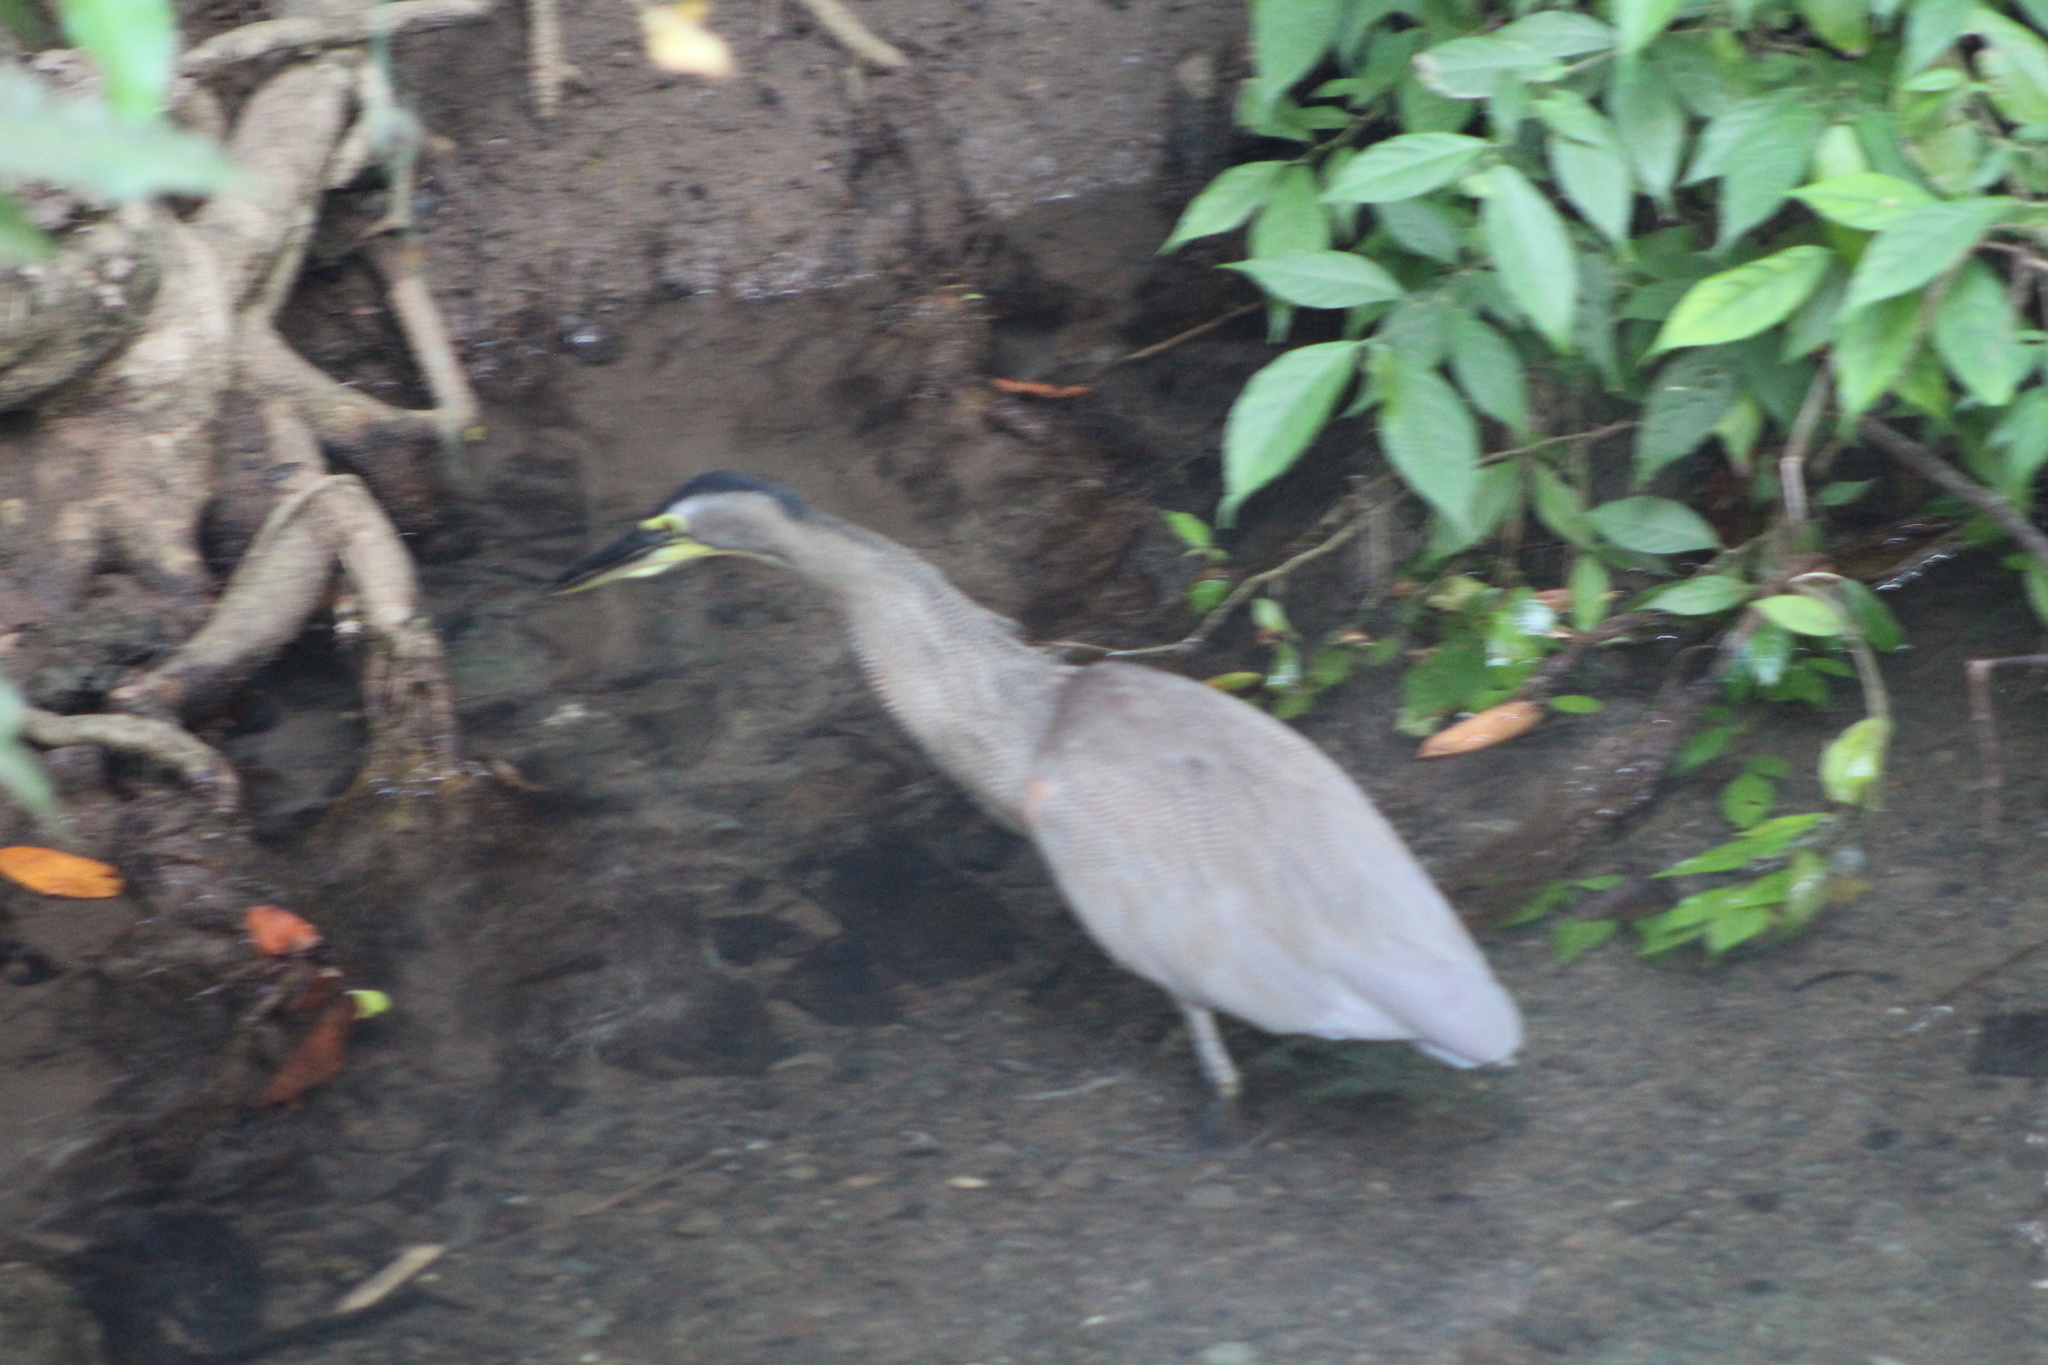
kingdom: Animalia
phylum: Chordata
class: Aves
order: Pelecaniformes
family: Ardeidae
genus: Tigrisoma
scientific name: Tigrisoma mexicanum
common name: Bare-throated tiger-heron
